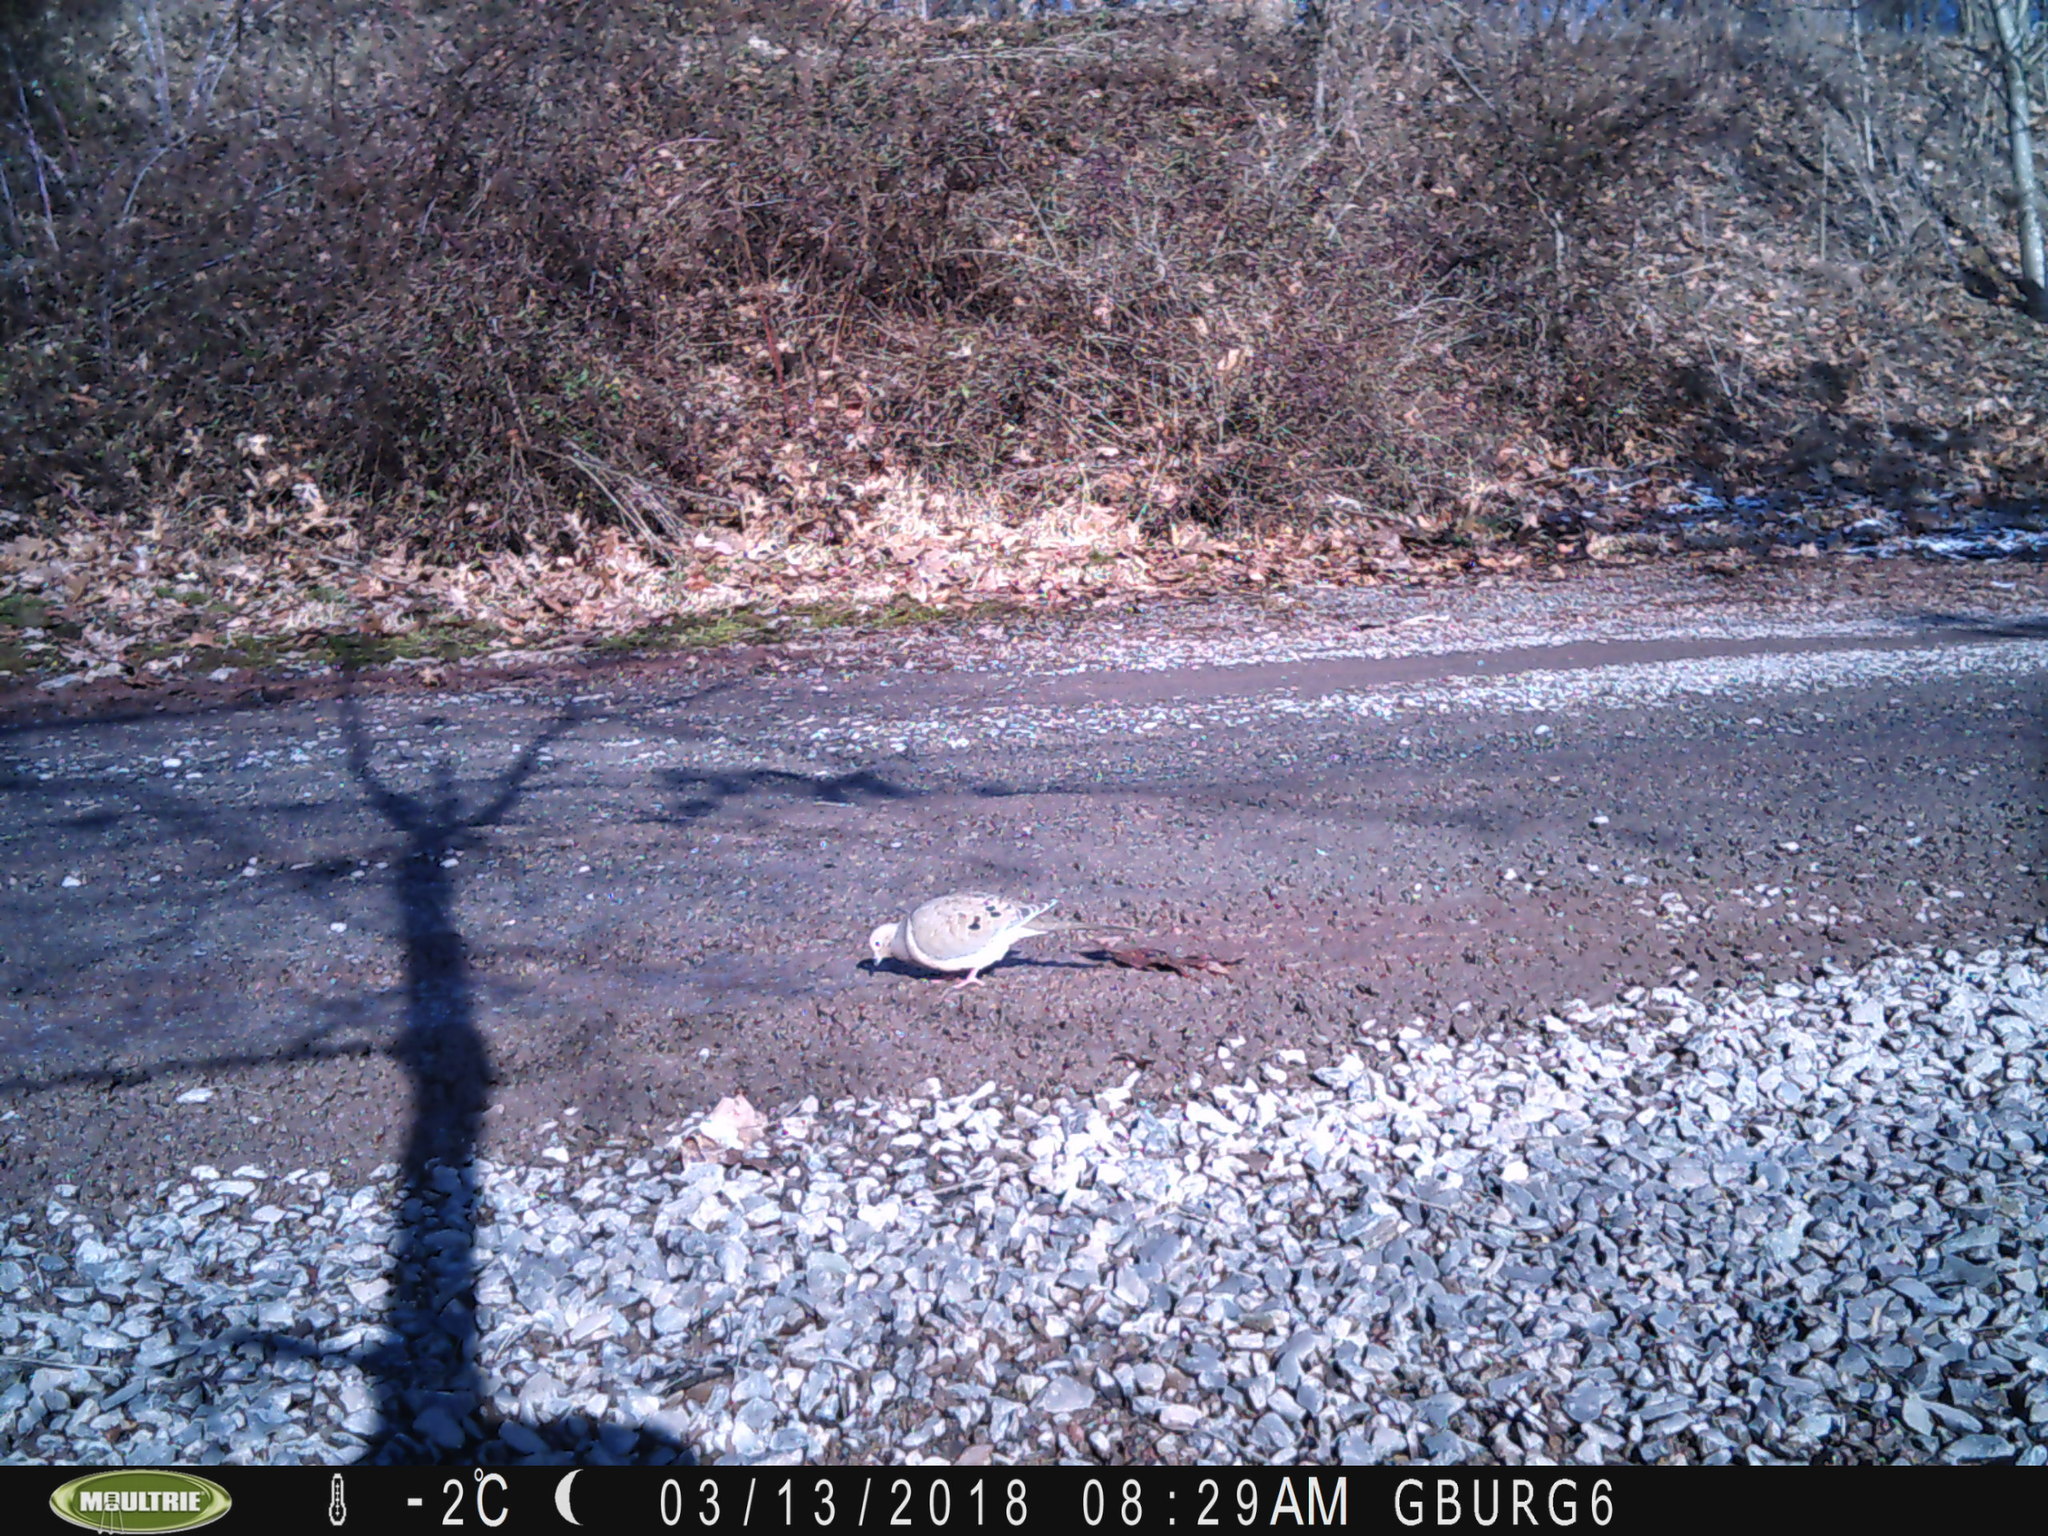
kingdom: Animalia
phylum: Chordata
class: Aves
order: Columbiformes
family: Columbidae
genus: Zenaida
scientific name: Zenaida macroura
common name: Mourning dove
